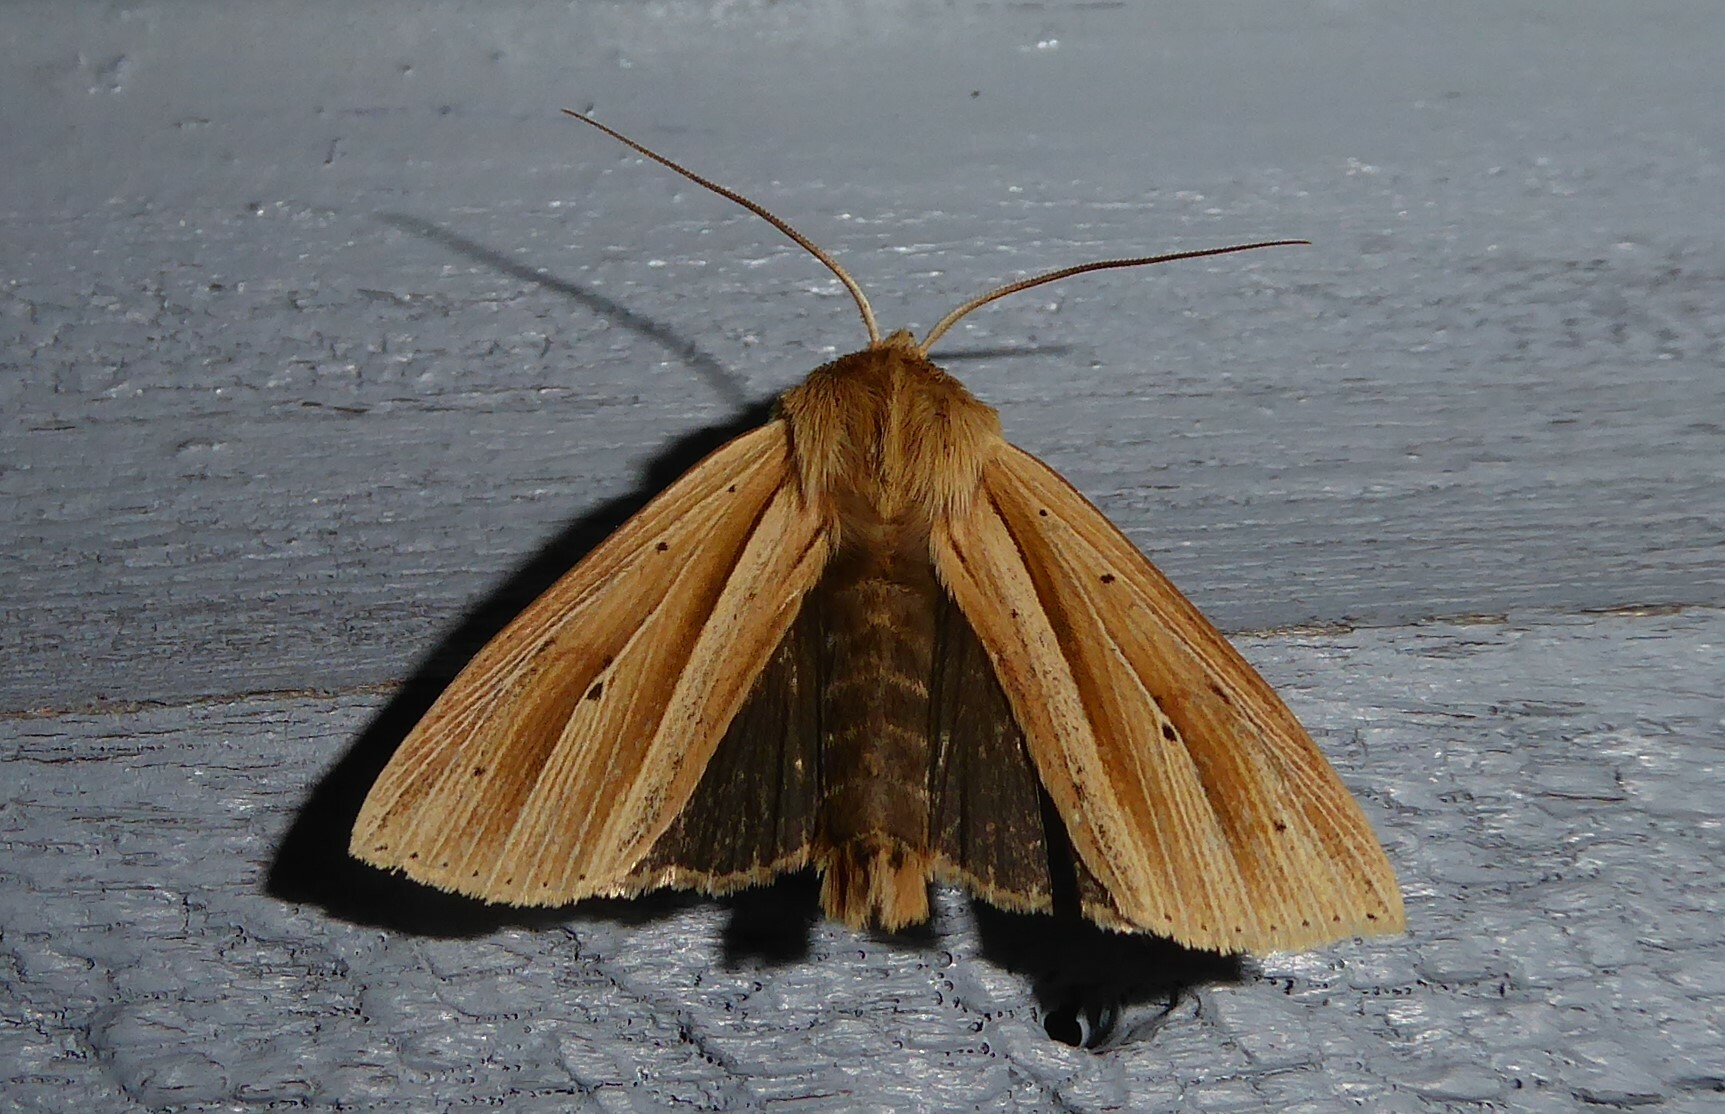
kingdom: Animalia
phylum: Arthropoda
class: Insecta
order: Lepidoptera
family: Noctuidae
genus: Ichneutica
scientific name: Ichneutica sulcana
